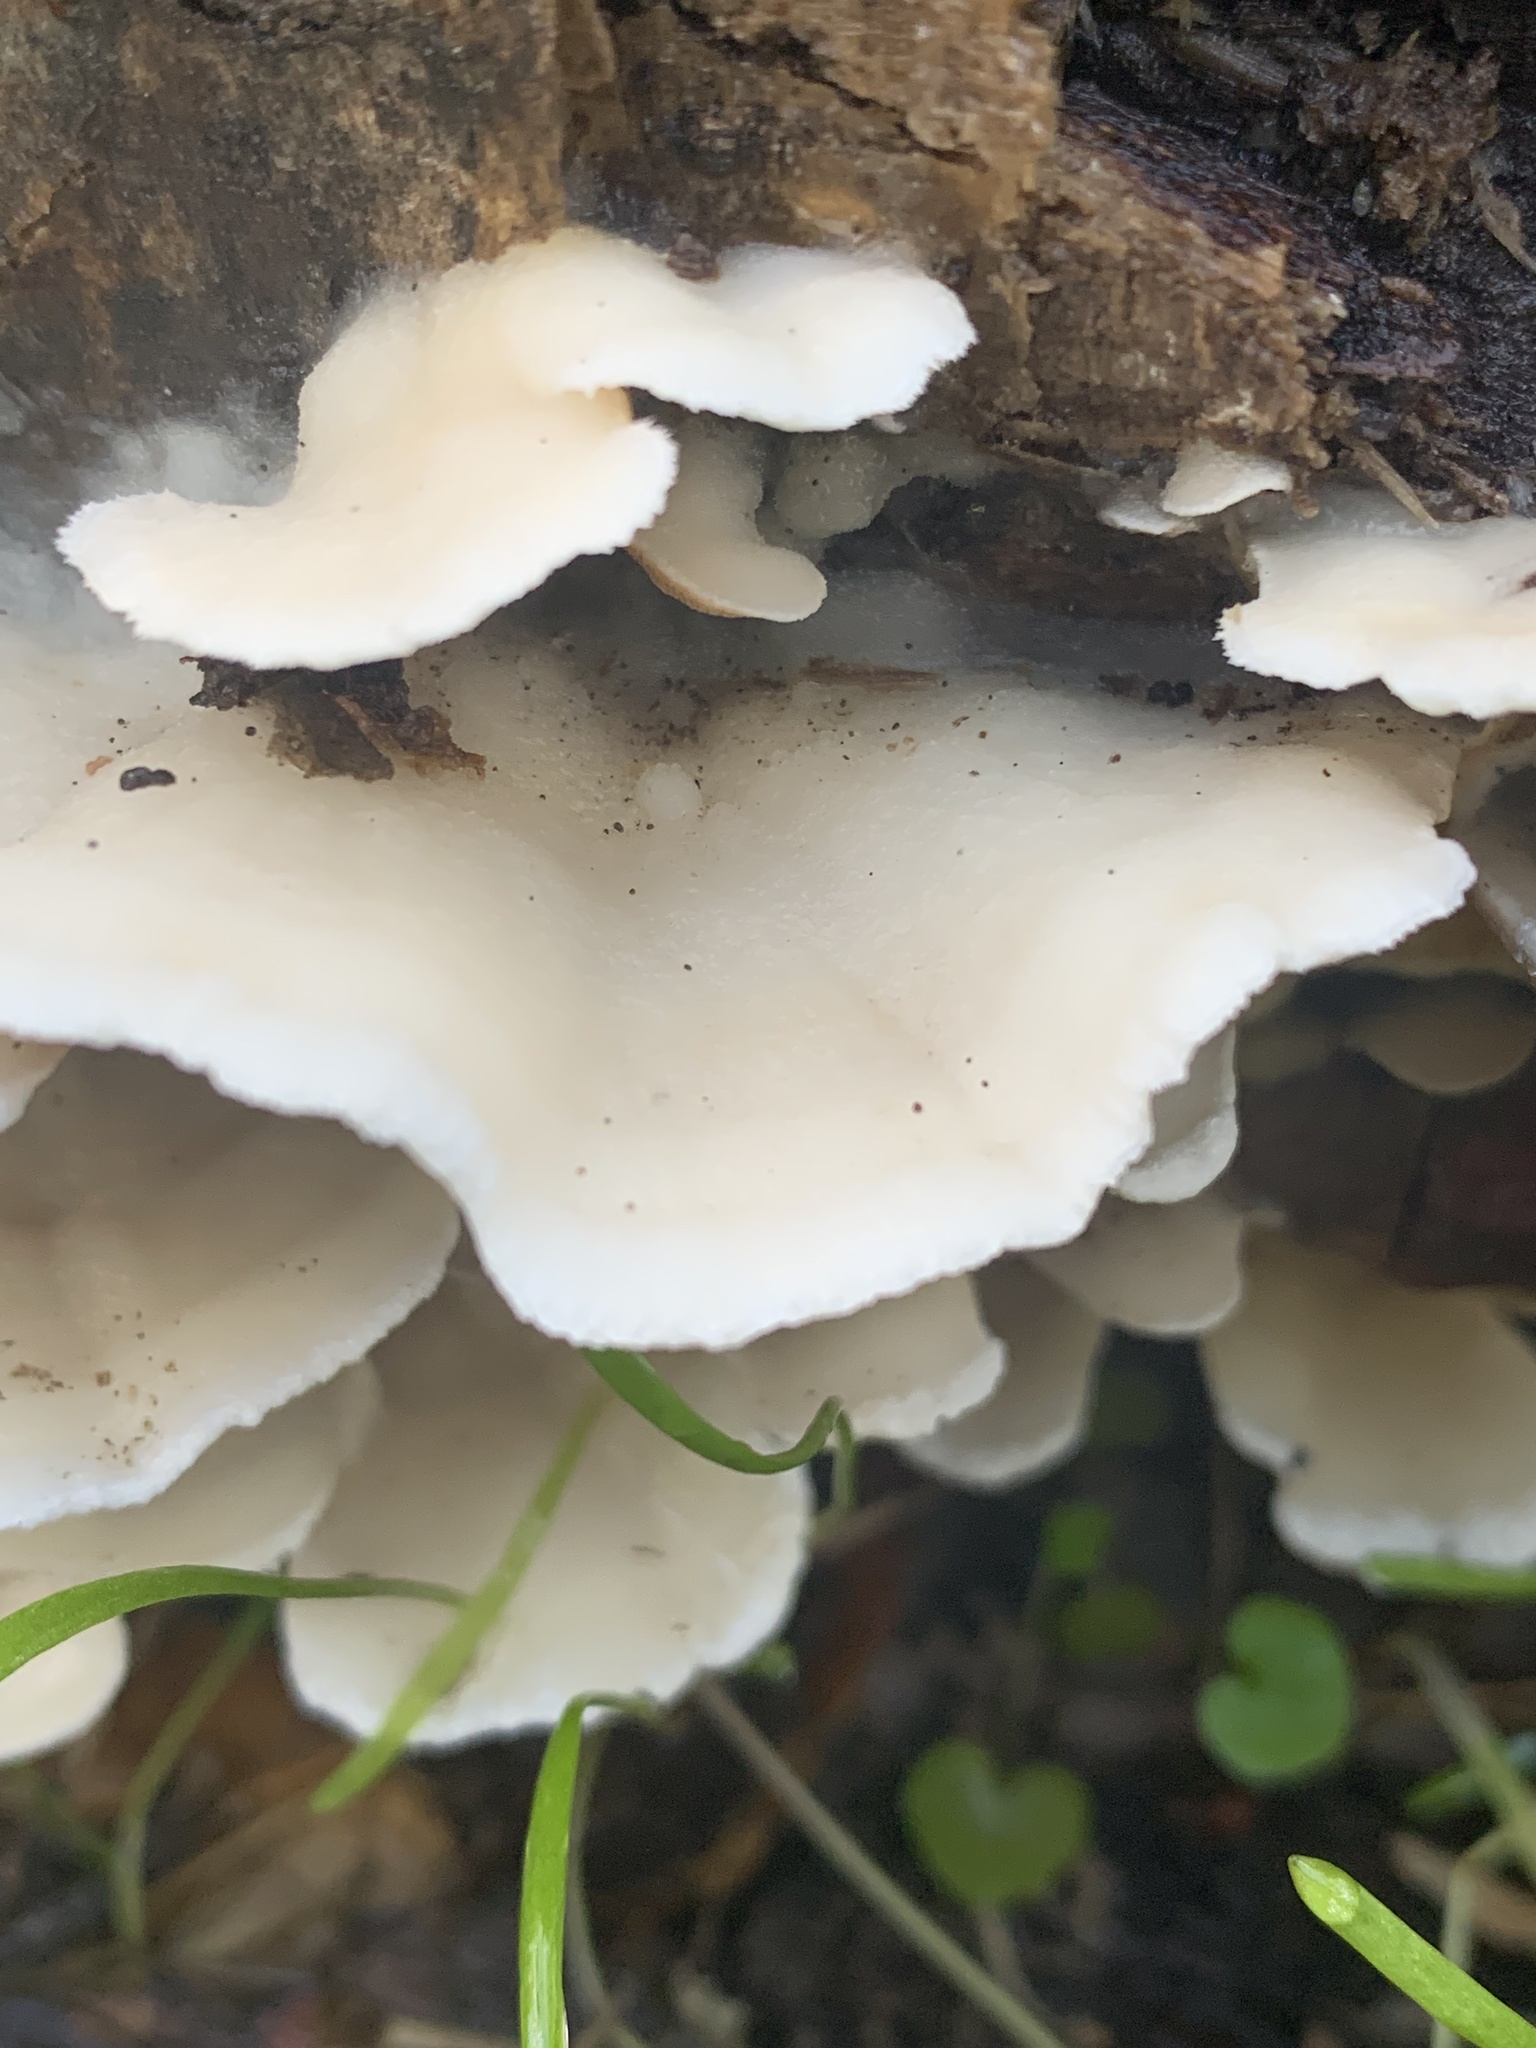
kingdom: Fungi
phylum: Basidiomycota
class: Agaricomycetes
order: Polyporales
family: Irpicaceae
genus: Vitreoporus
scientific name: Vitreoporus dichrous
